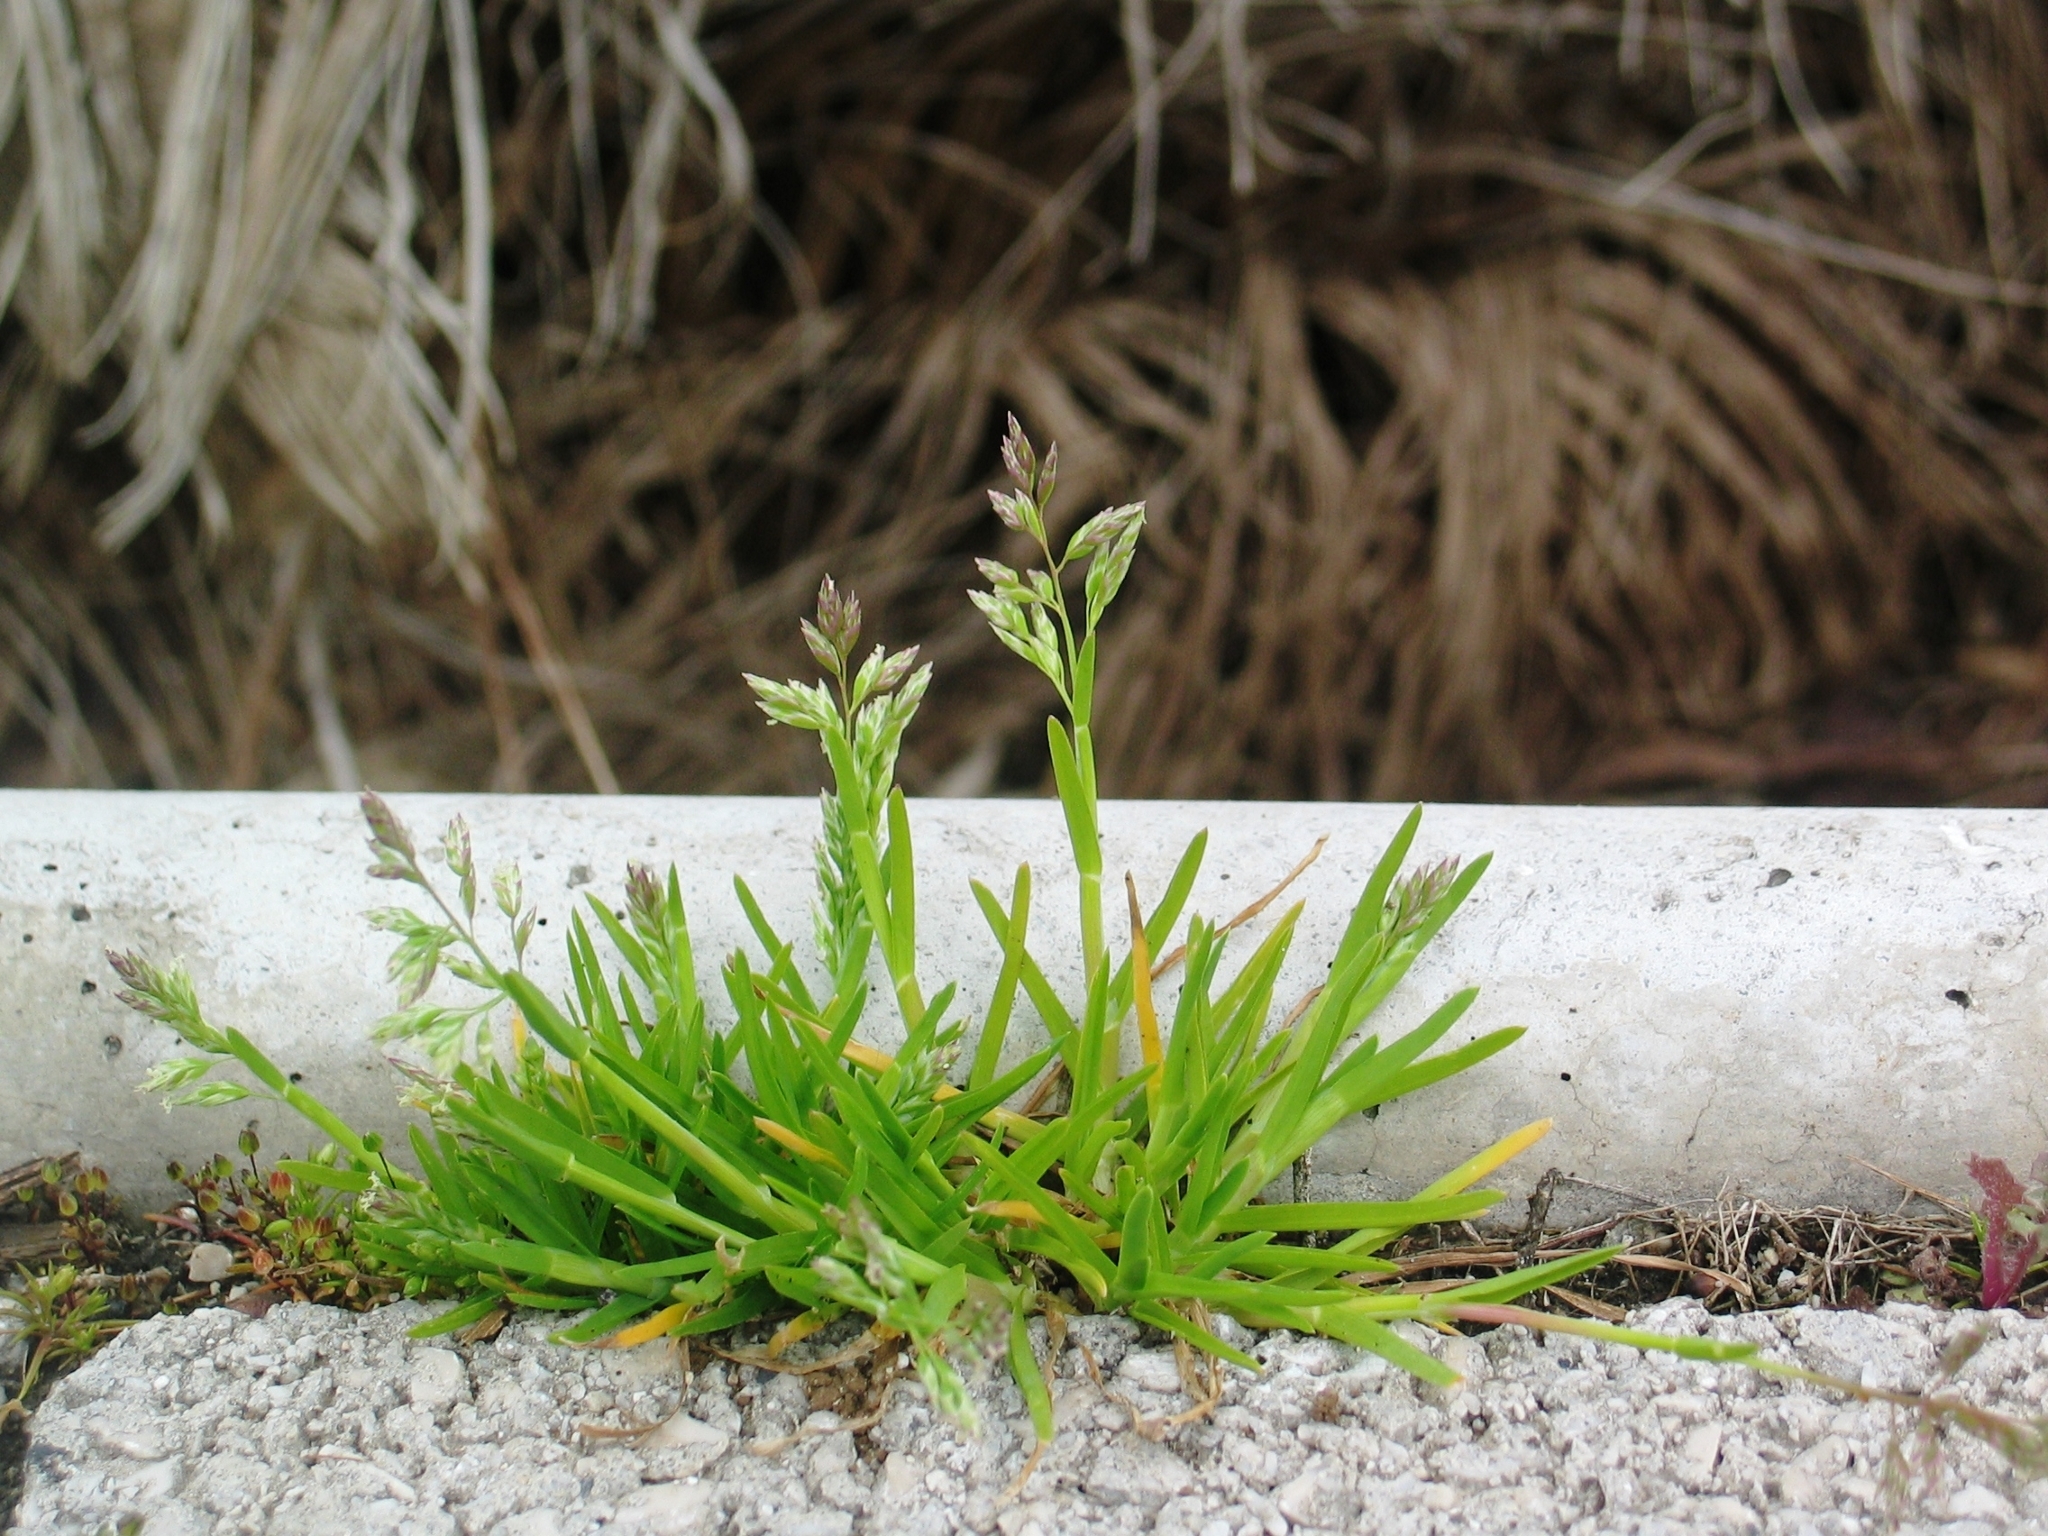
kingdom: Plantae
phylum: Tracheophyta
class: Liliopsida
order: Poales
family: Poaceae
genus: Poa
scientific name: Poa annua
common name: Annual bluegrass
